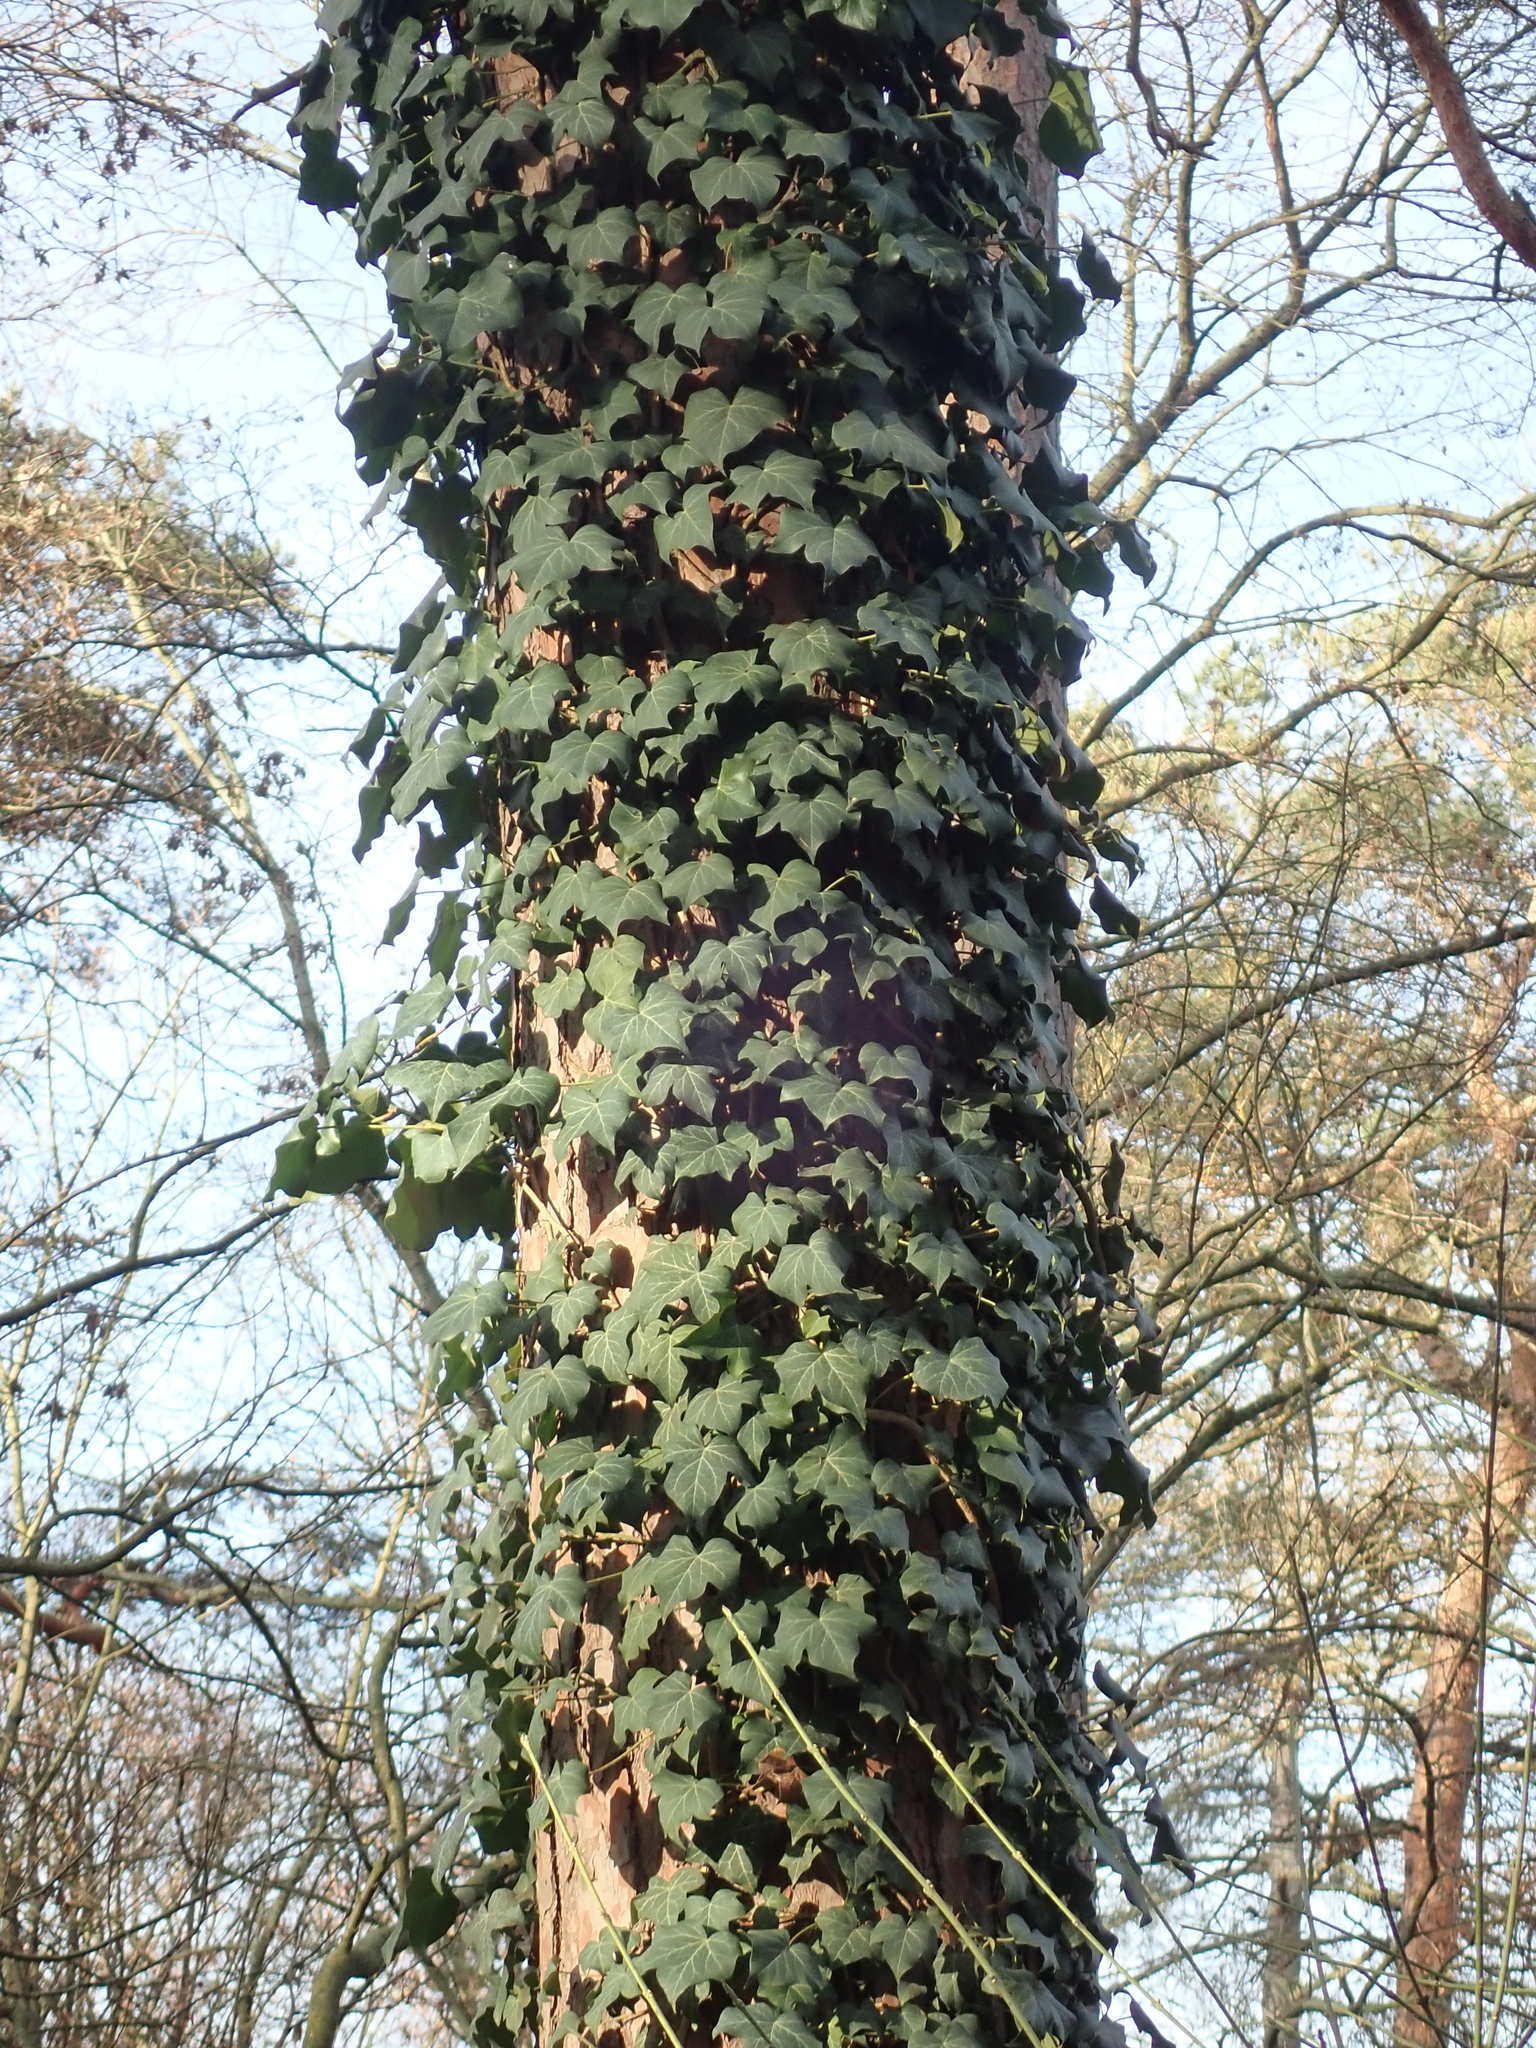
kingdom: Plantae
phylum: Tracheophyta
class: Magnoliopsida
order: Apiales
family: Araliaceae
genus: Hedera
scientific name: Hedera helix
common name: Ivy
